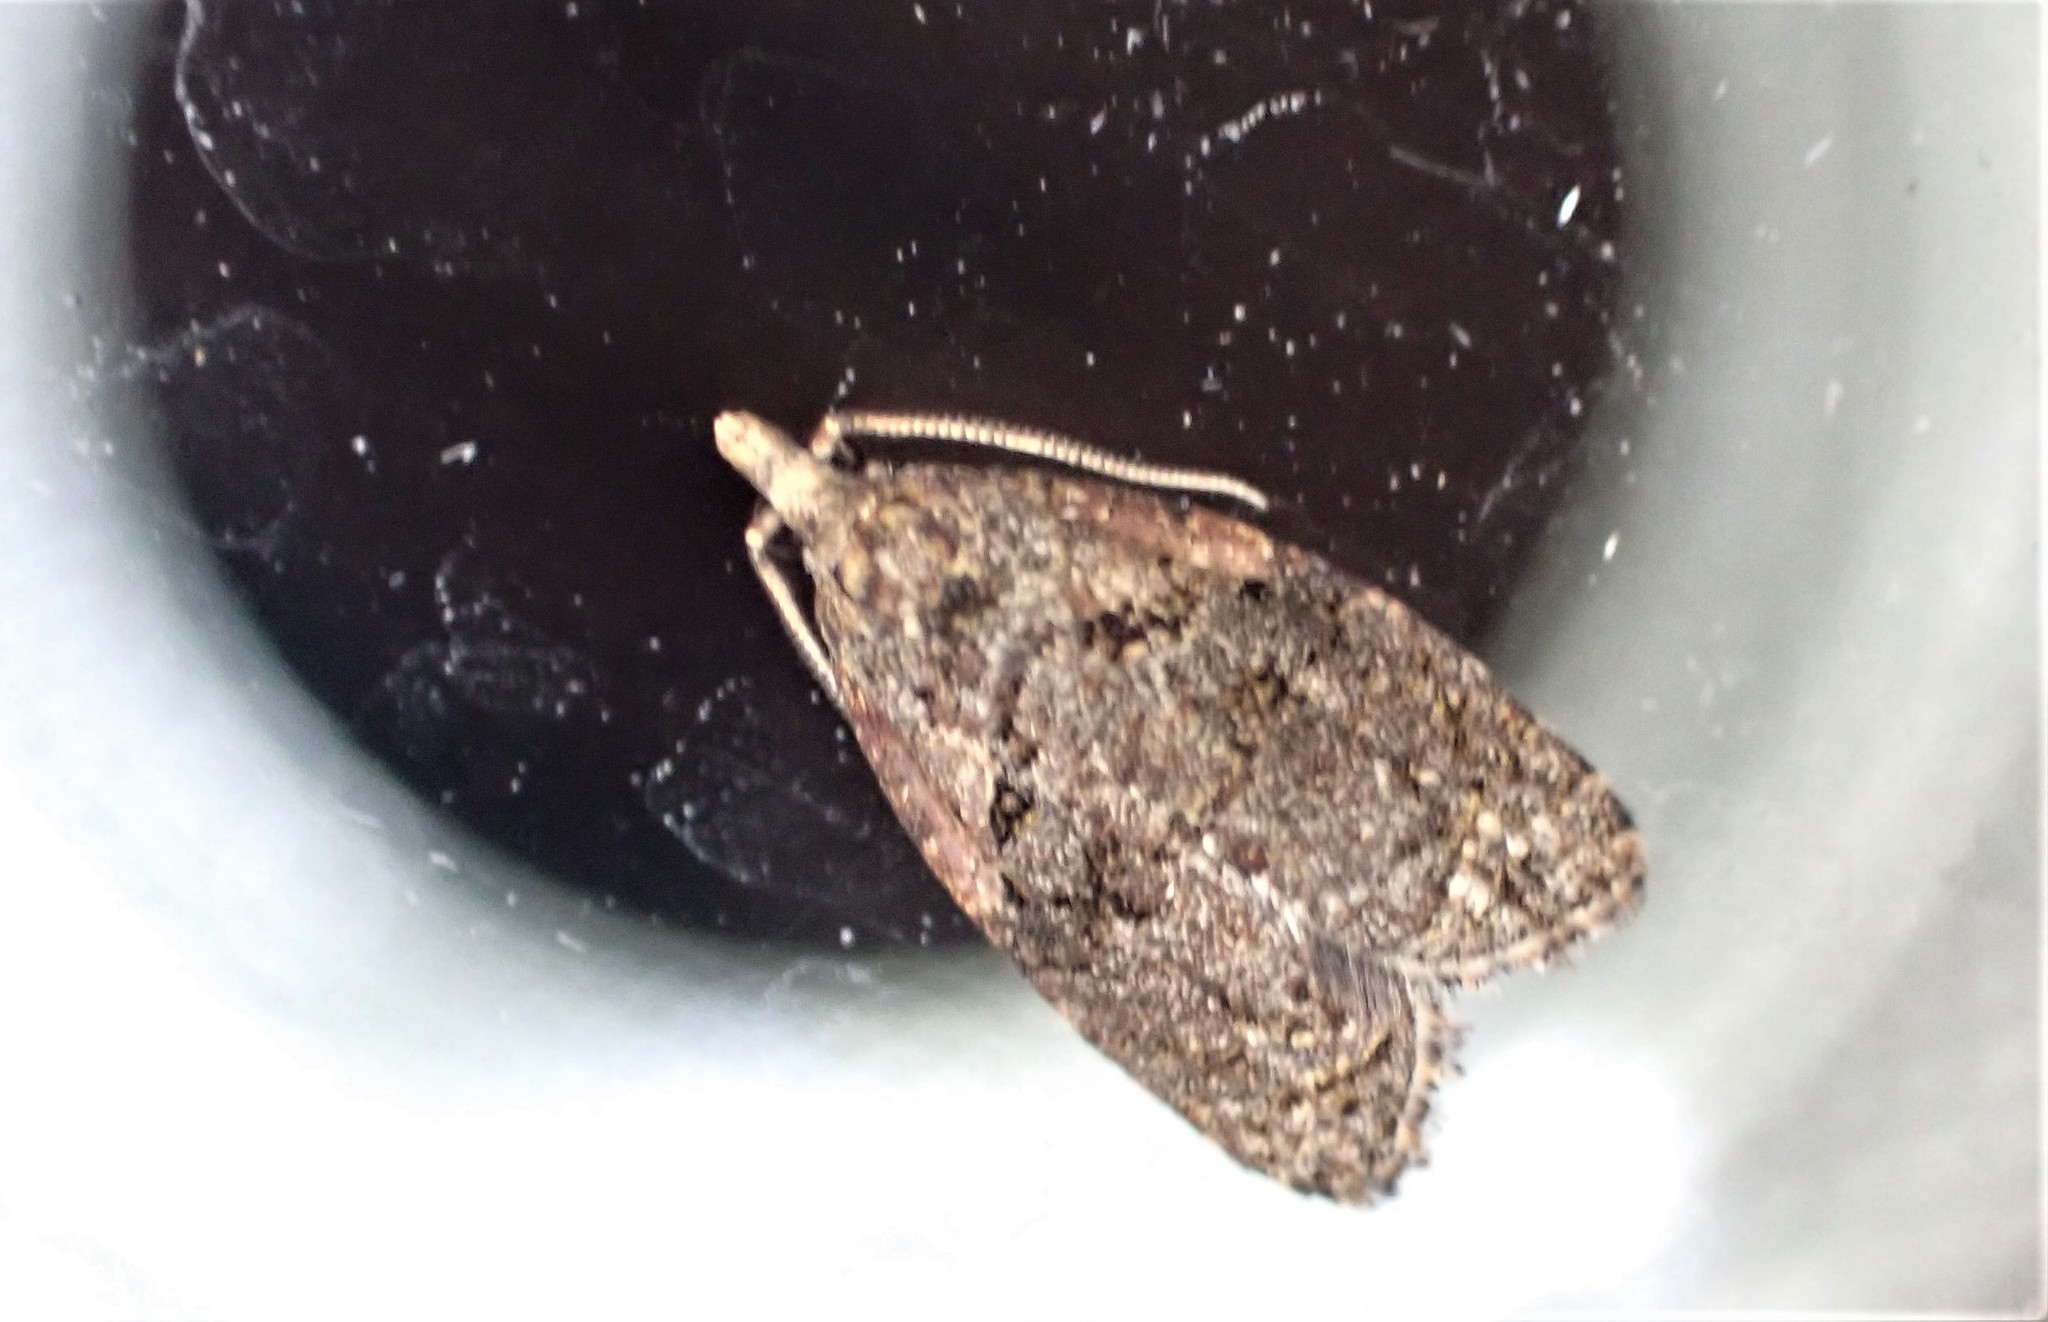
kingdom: Animalia
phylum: Arthropoda
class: Insecta
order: Lepidoptera
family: Tortricidae
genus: Capua
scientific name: Capua intractana
